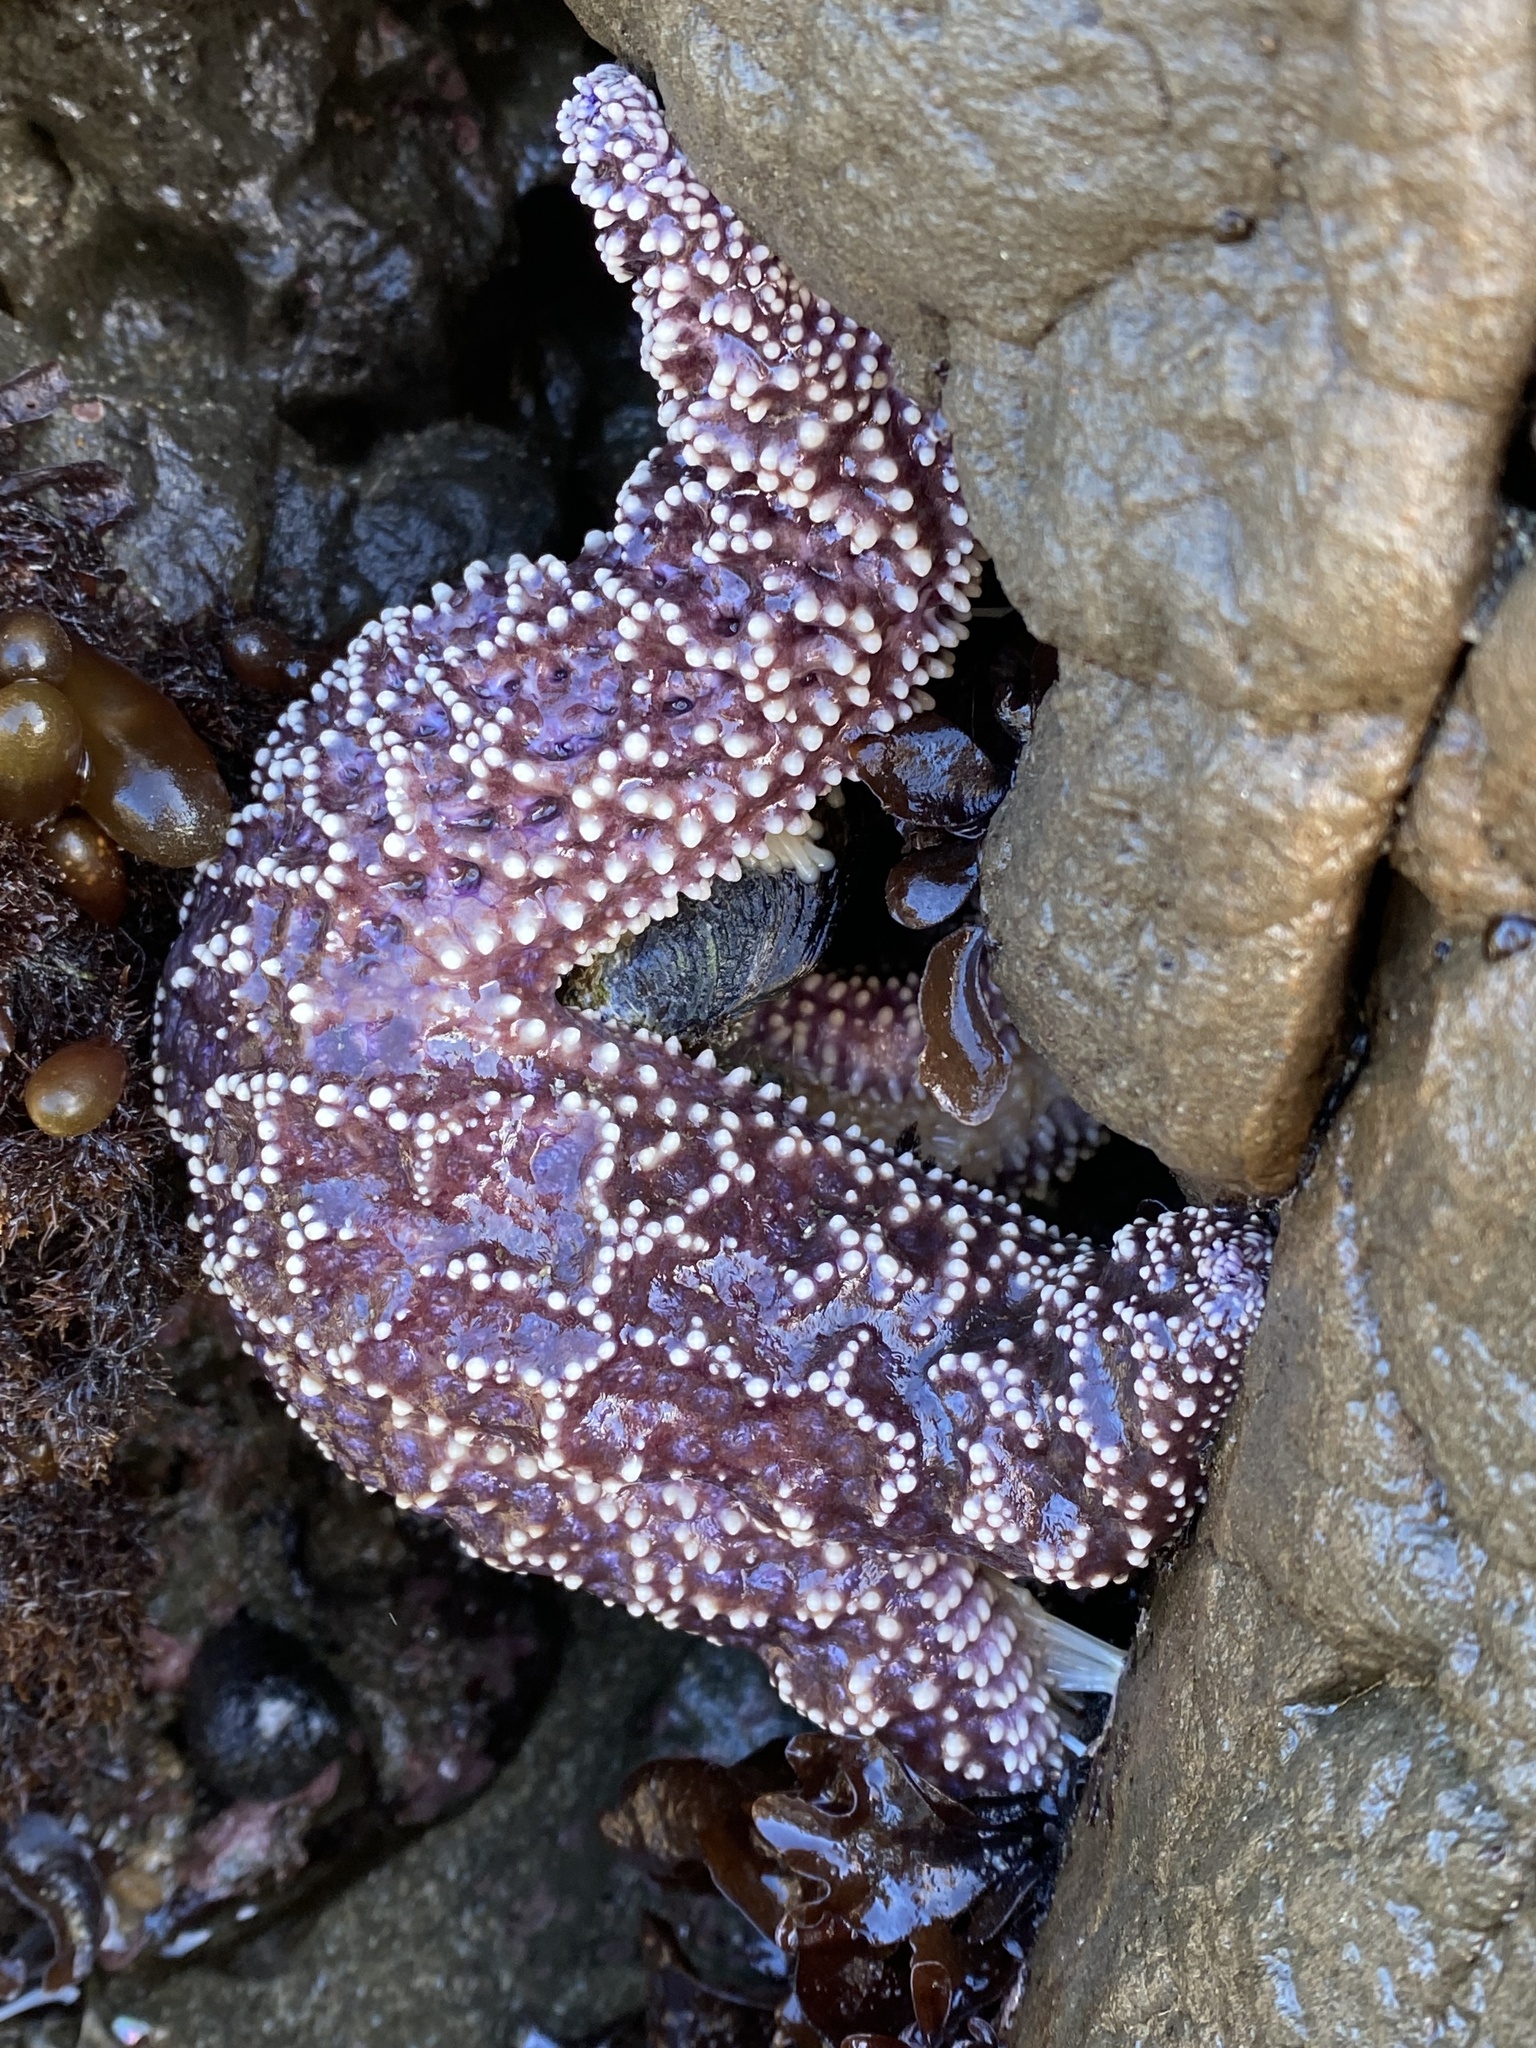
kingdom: Animalia
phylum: Echinodermata
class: Asteroidea
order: Forcipulatida
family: Asteriidae
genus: Pisaster
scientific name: Pisaster ochraceus
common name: Ochre stars
